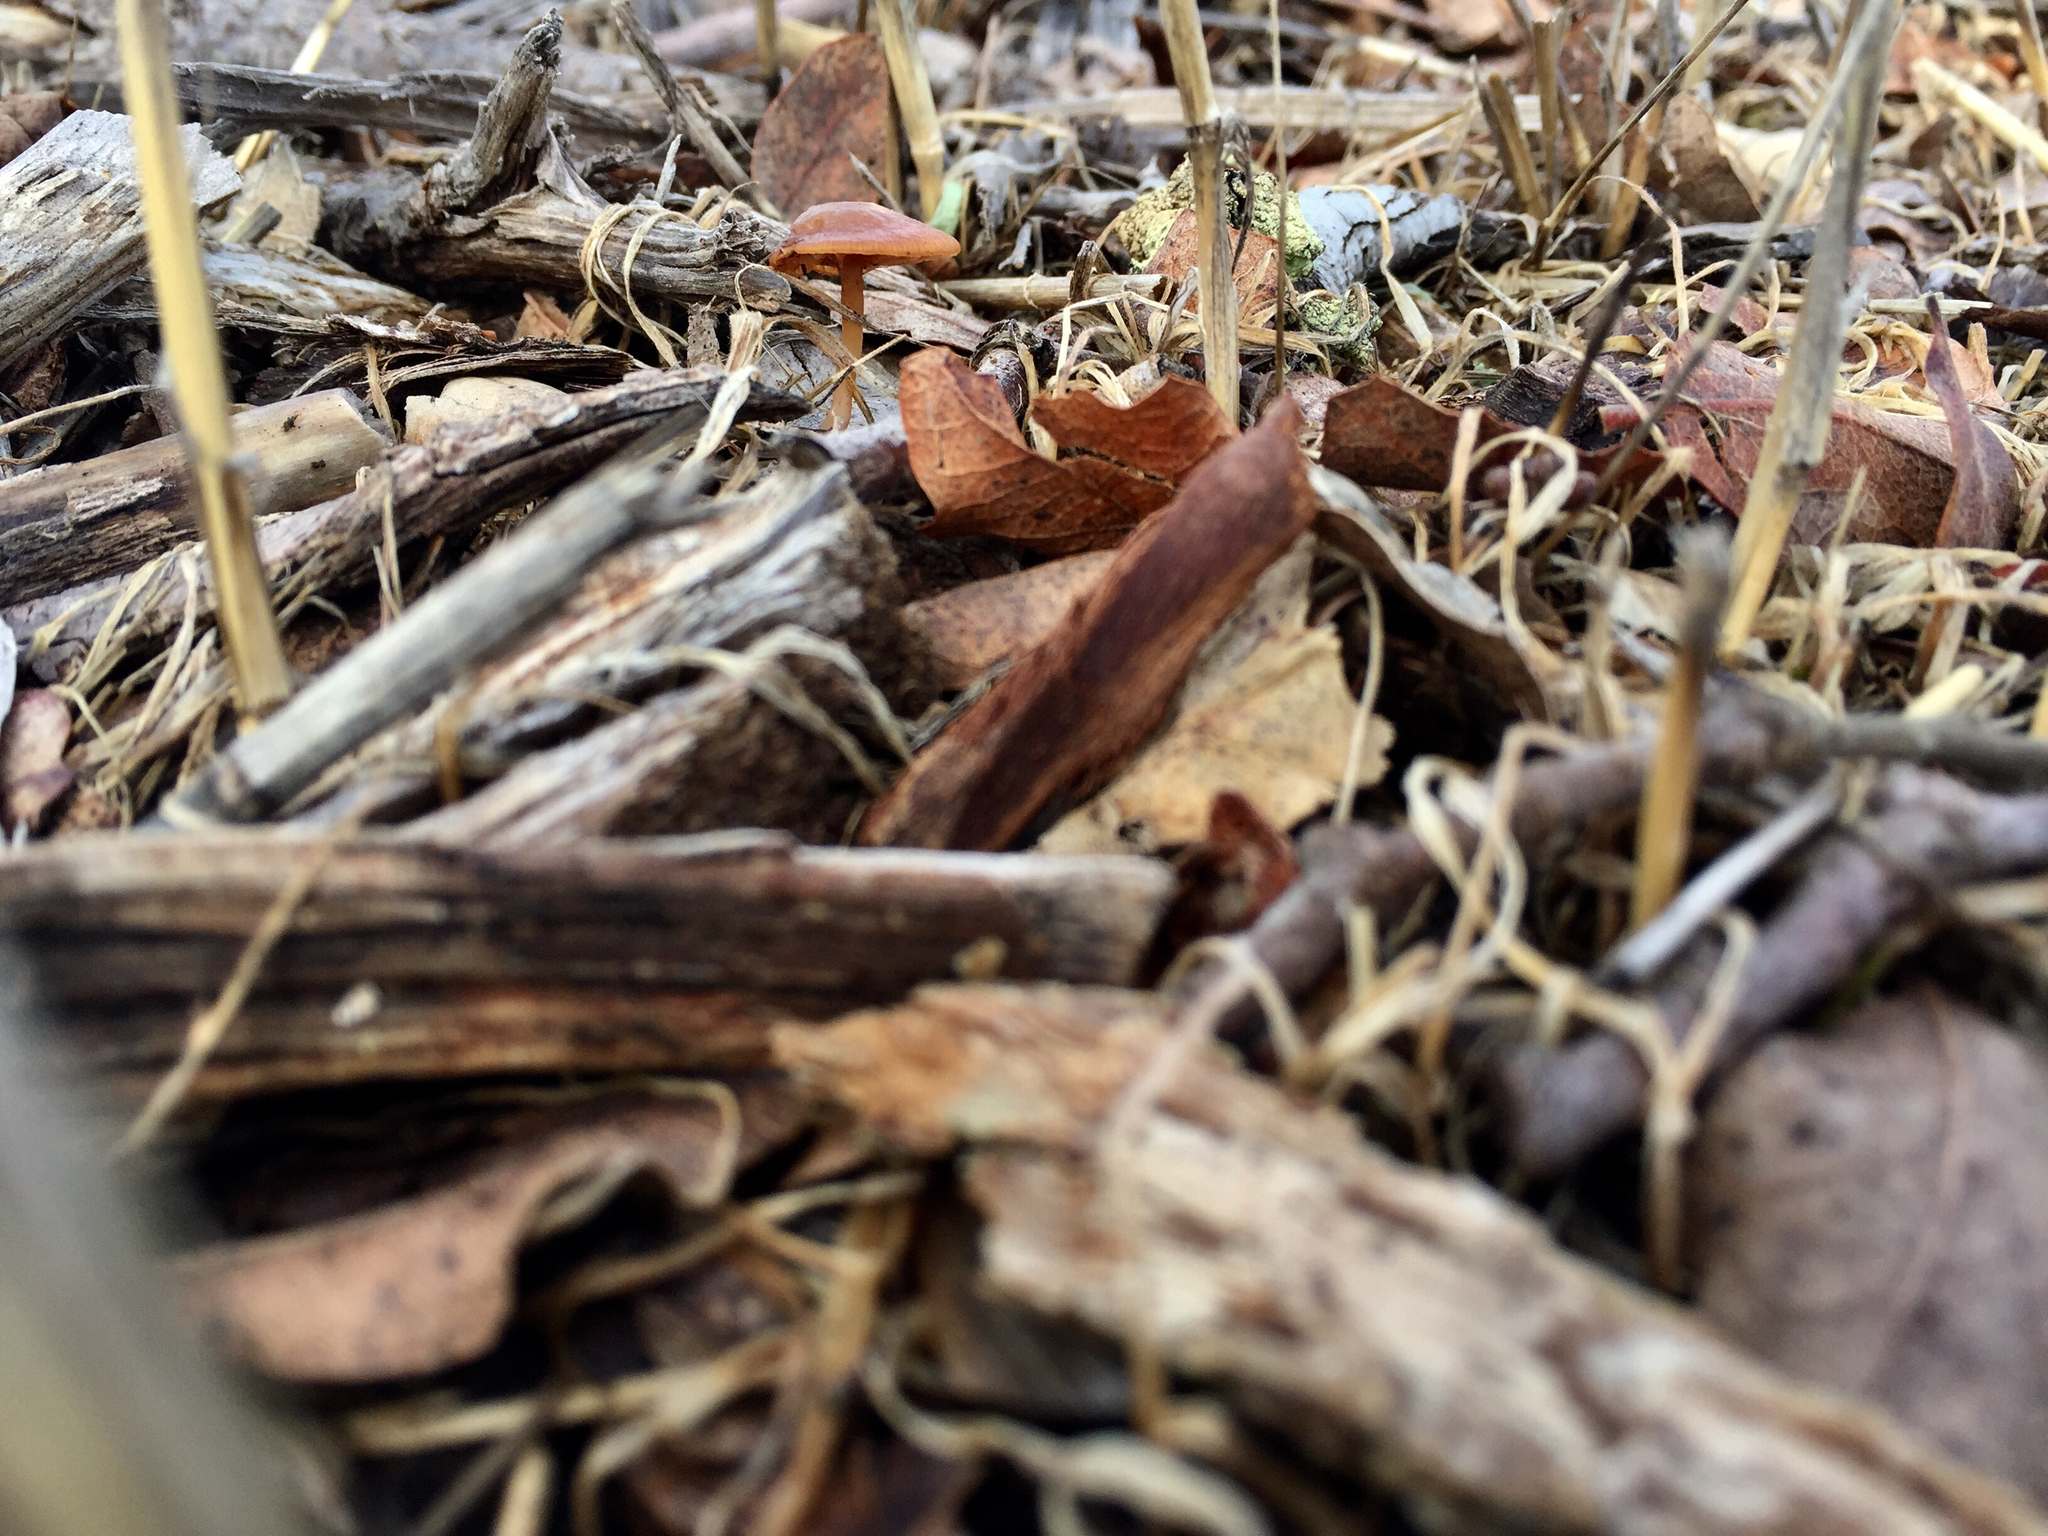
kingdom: Fungi
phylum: Basidiomycota
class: Agaricomycetes
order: Agaricales
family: Tubariaceae
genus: Tubaria
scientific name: Tubaria furfuracea
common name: Scurfy twiglet
